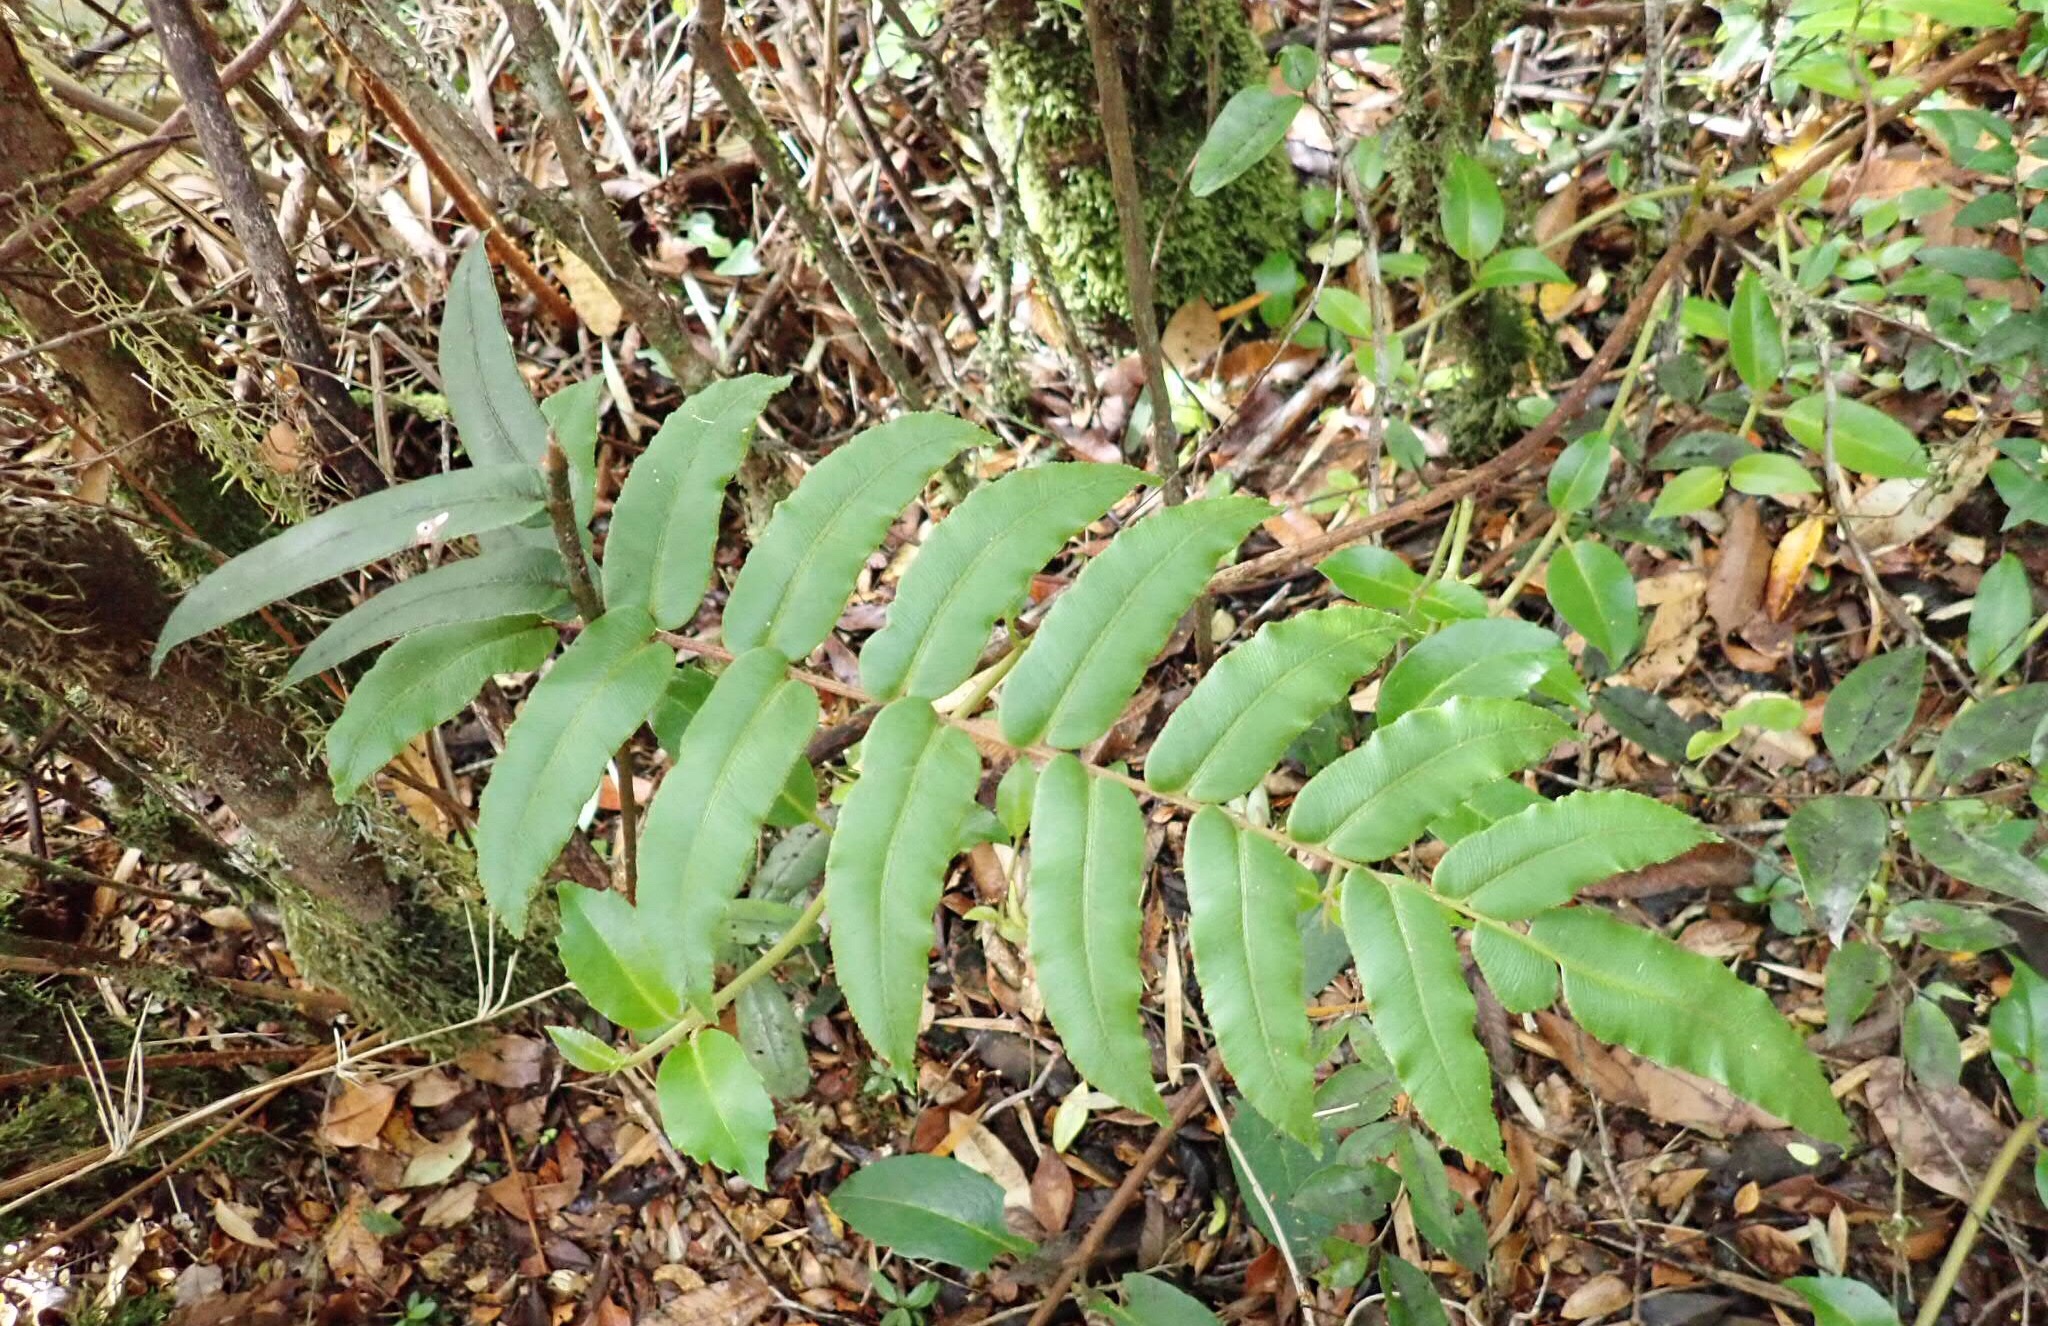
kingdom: Plantae
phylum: Tracheophyta
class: Polypodiopsida
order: Polypodiales
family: Blechnaceae
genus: Parablechnum
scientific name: Parablechnum chilense
